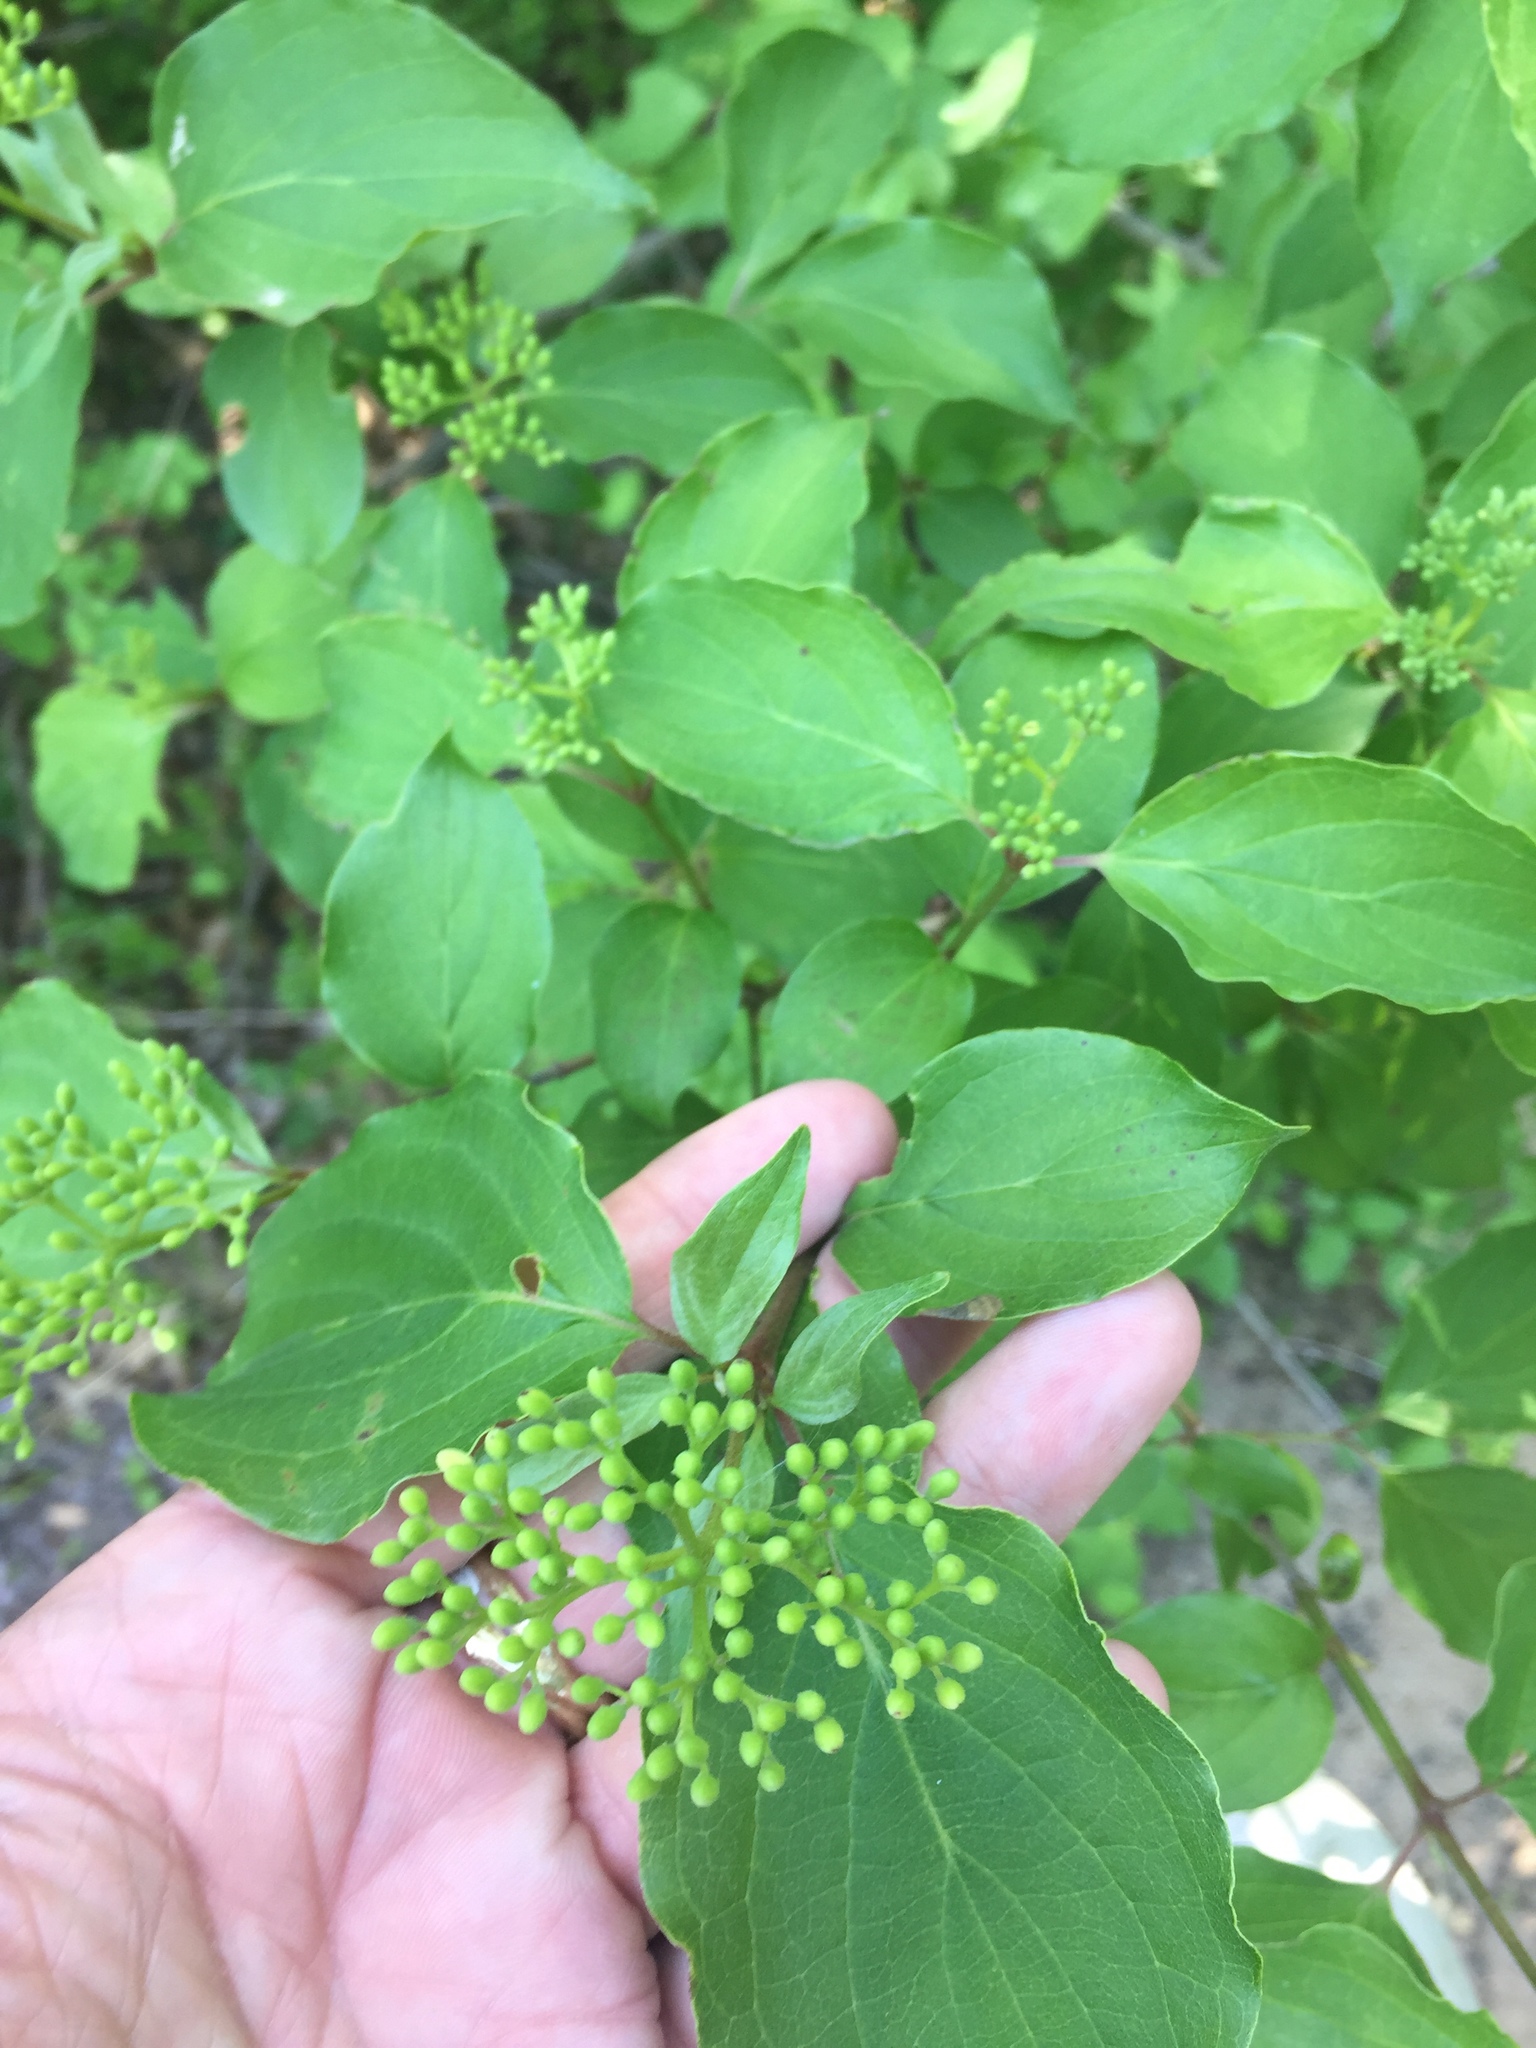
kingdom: Plantae
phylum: Tracheophyta
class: Magnoliopsida
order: Cornales
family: Cornaceae
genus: Cornus
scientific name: Cornus drummondii
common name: Rough-leaf dogwood
